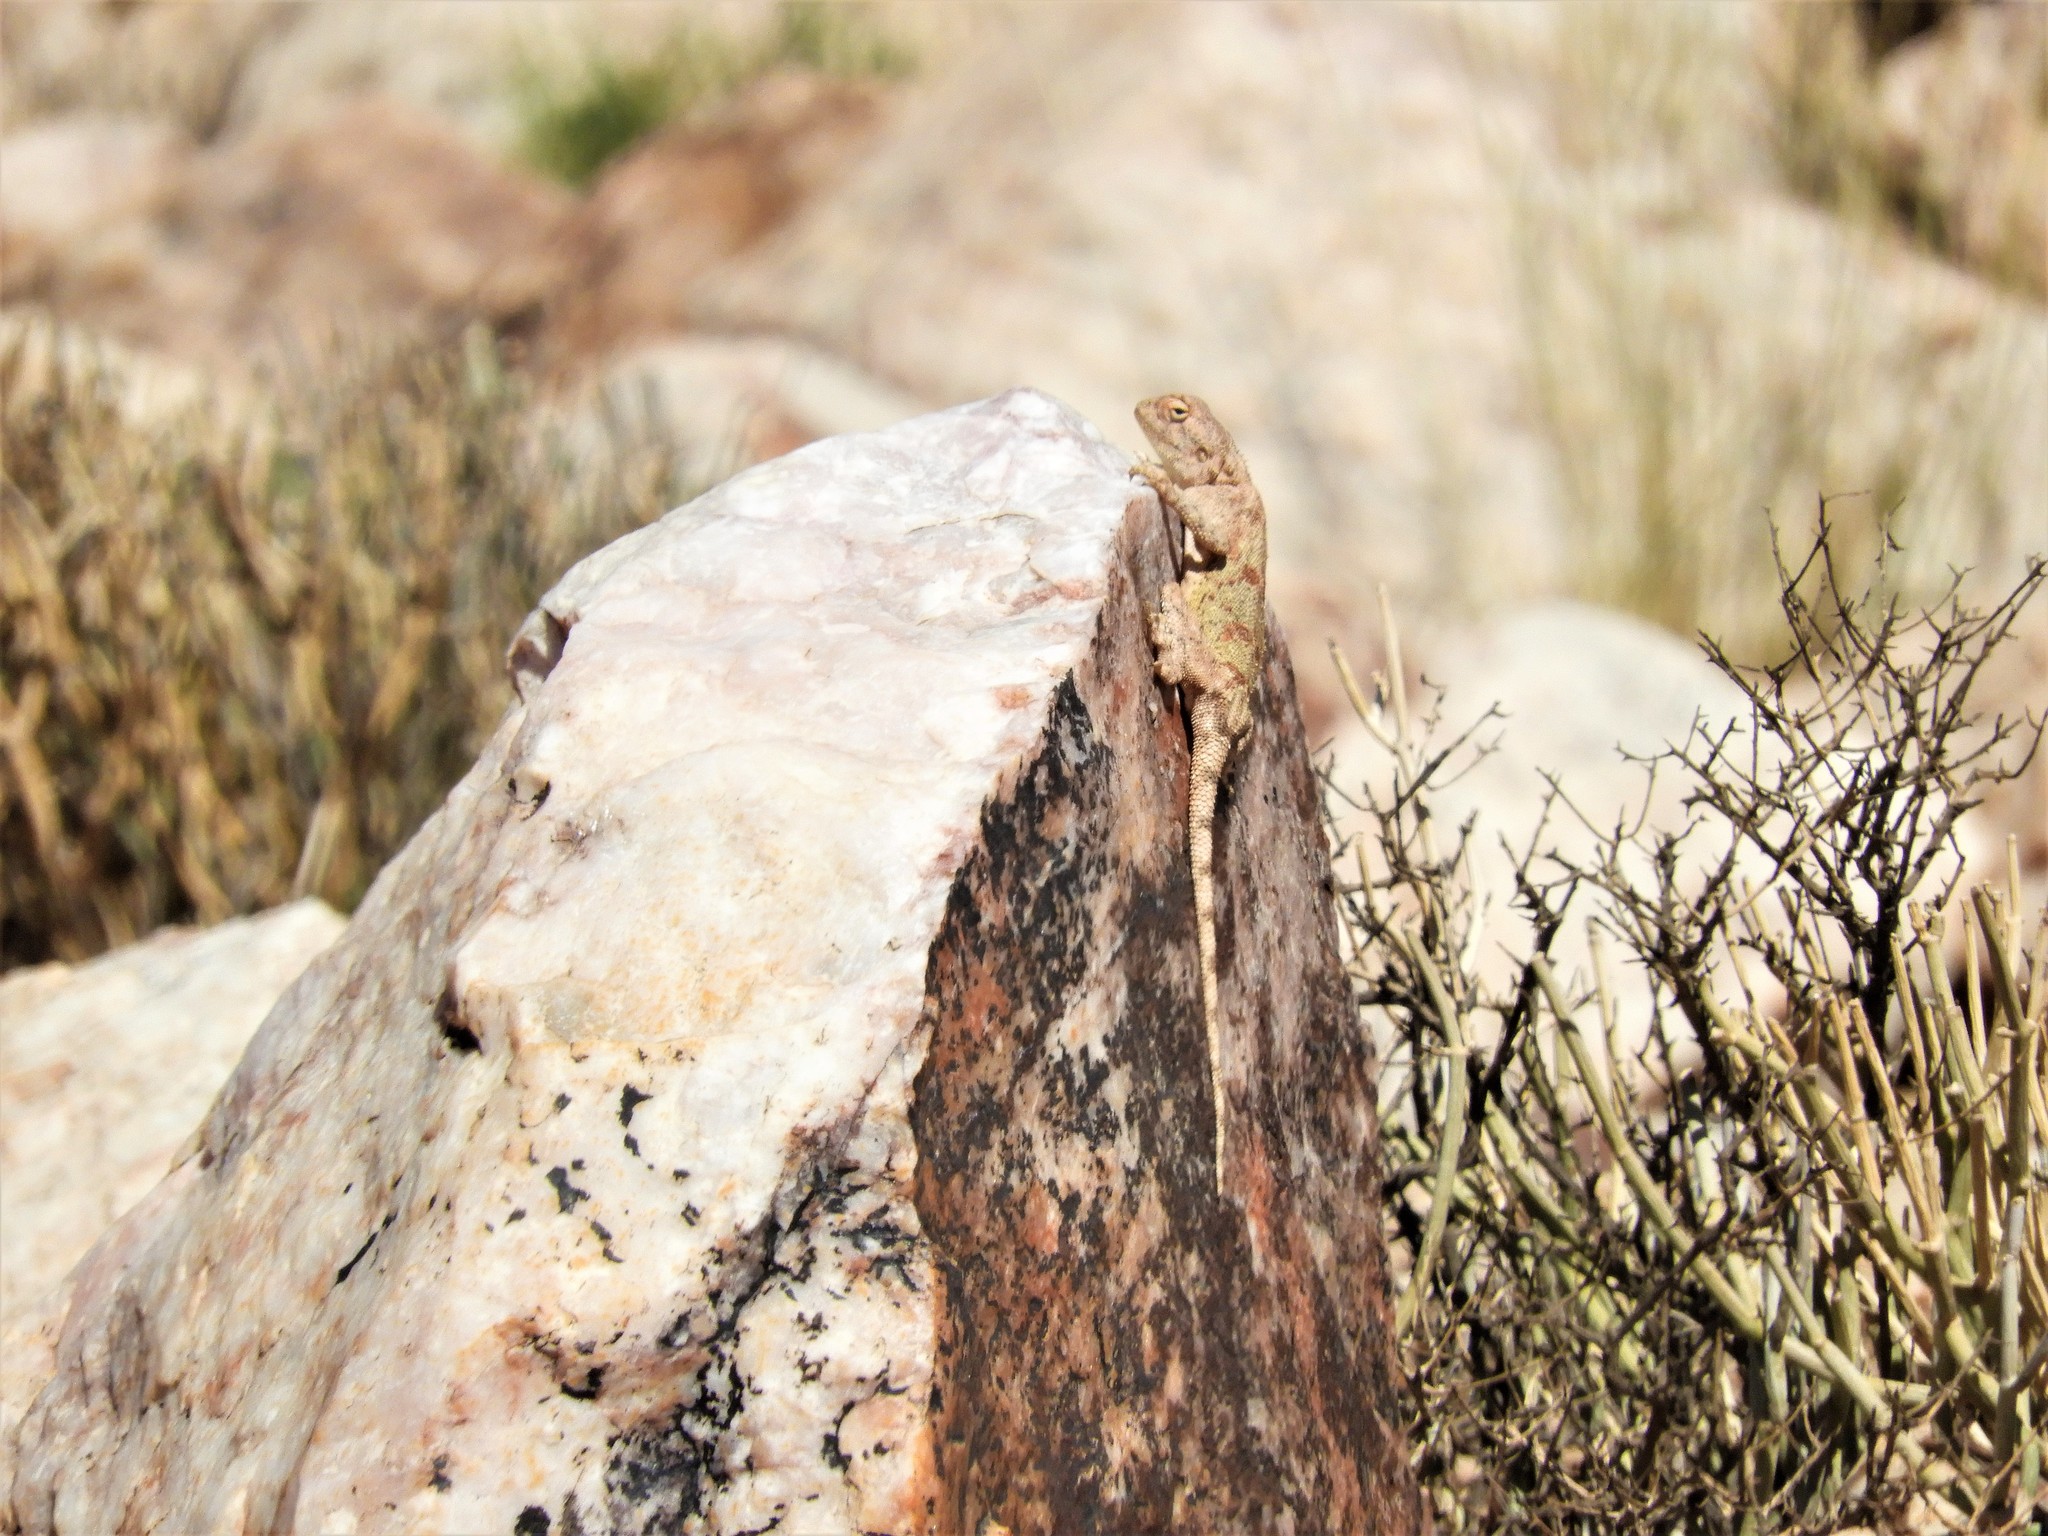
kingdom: Animalia
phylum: Chordata
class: Squamata
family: Agamidae
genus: Agama
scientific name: Agama atra
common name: Southern african rock agama
